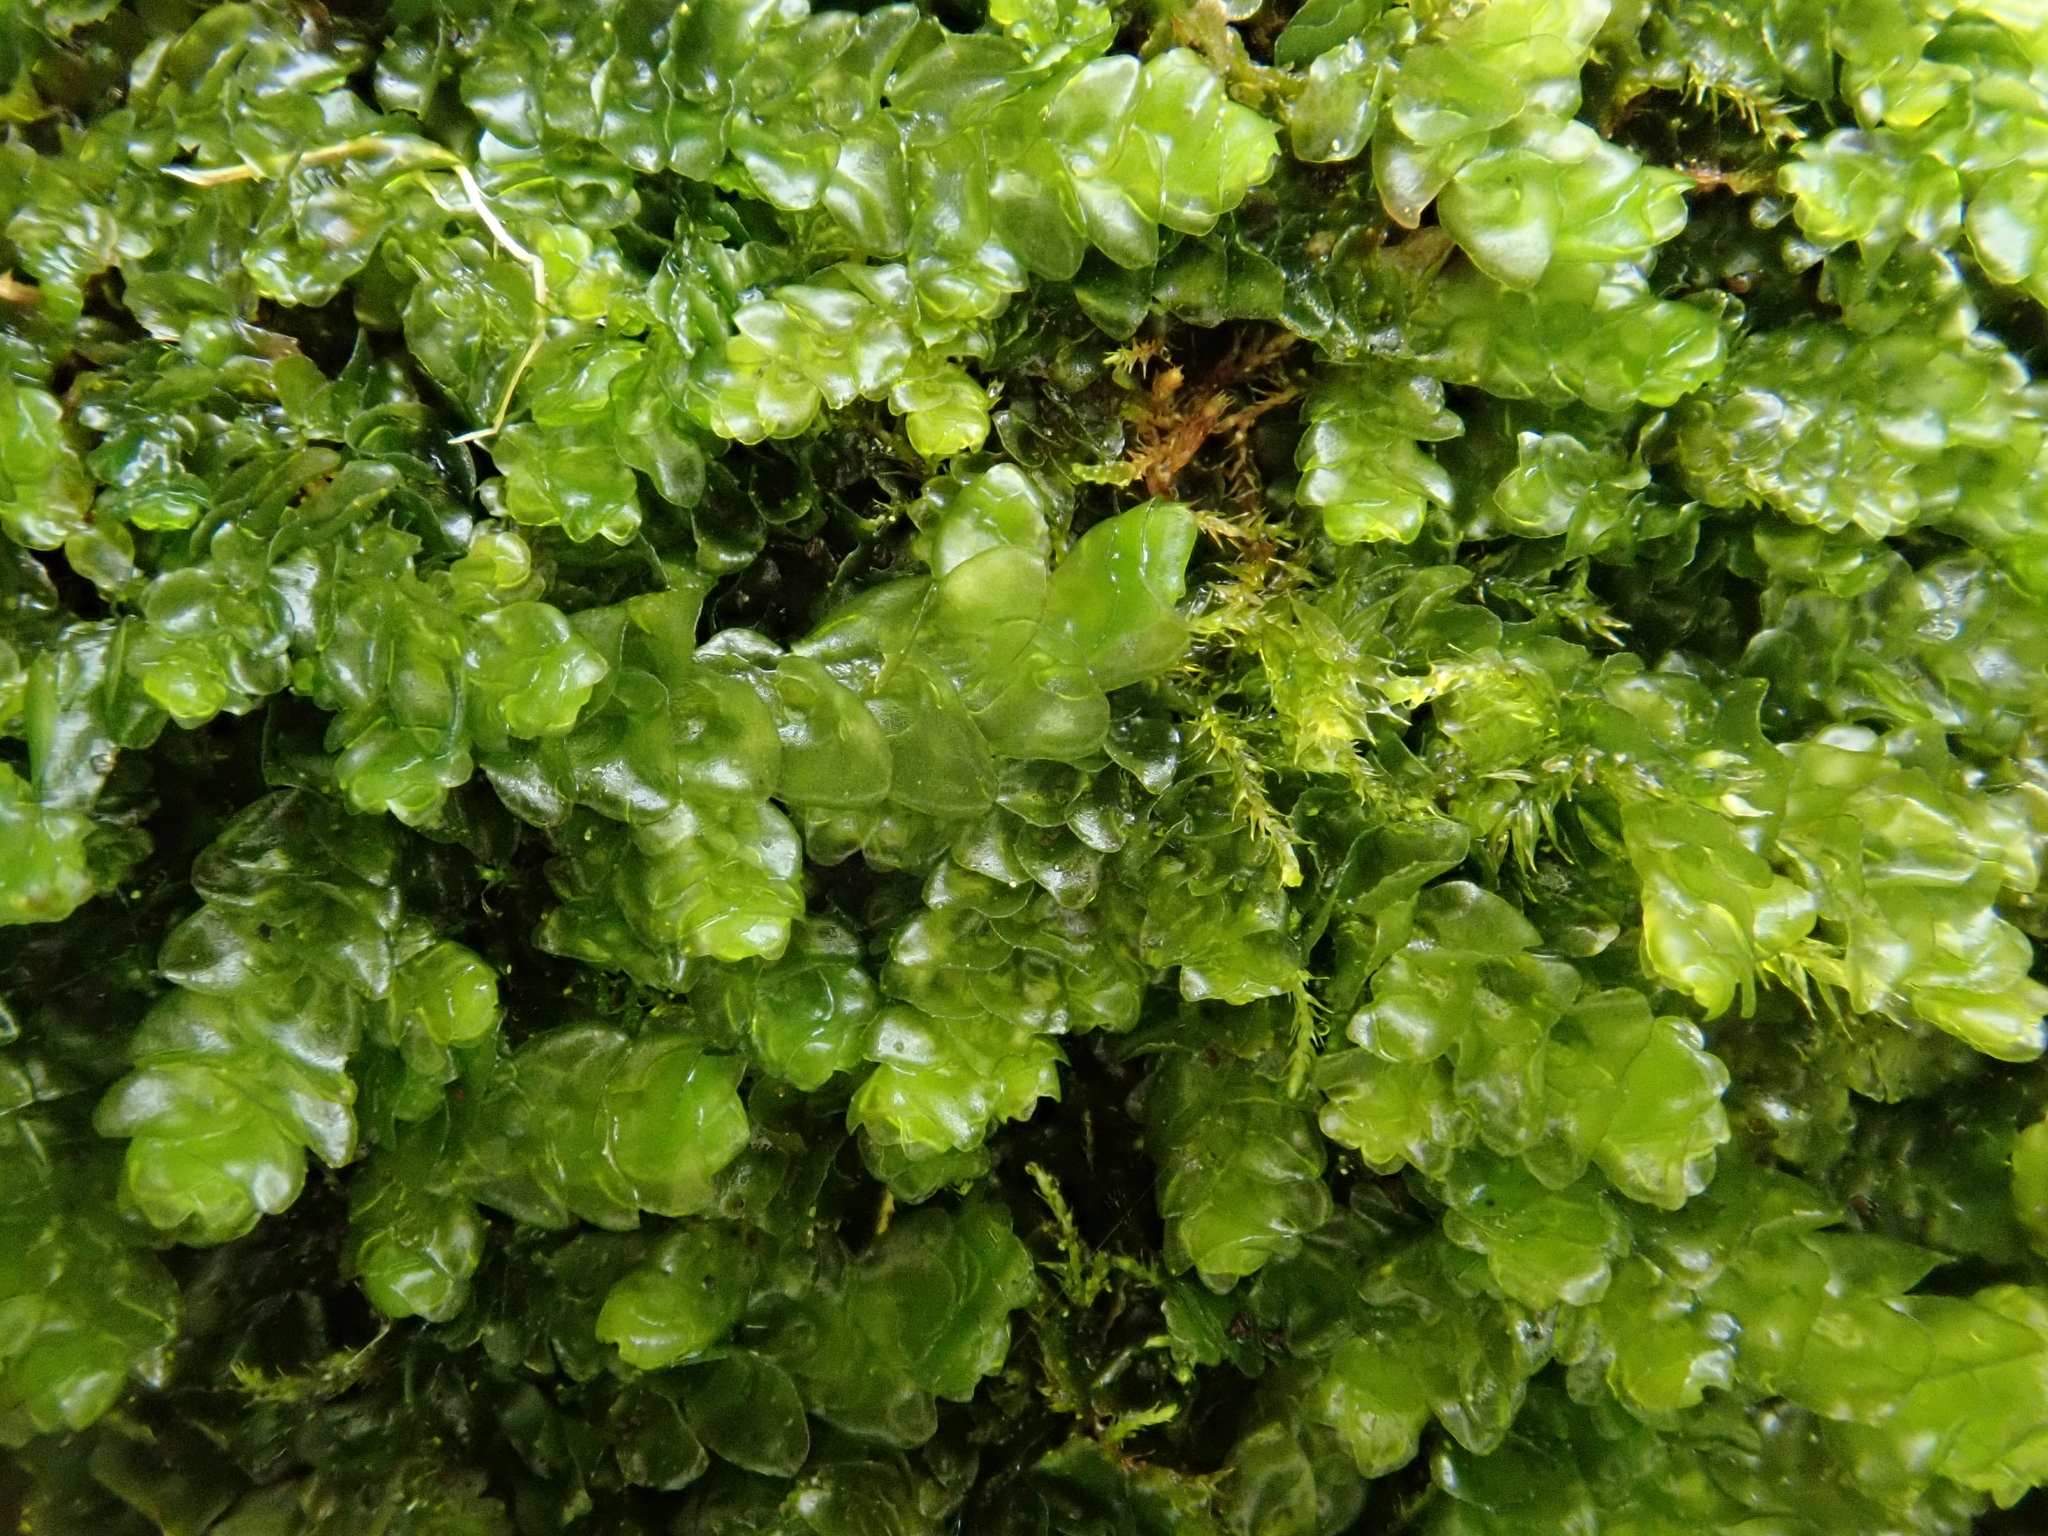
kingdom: Plantae
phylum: Marchantiophyta
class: Jungermanniopsida
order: Porellales
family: Porellaceae
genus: Porella
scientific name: Porella platyphylla
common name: Wall scalewort
